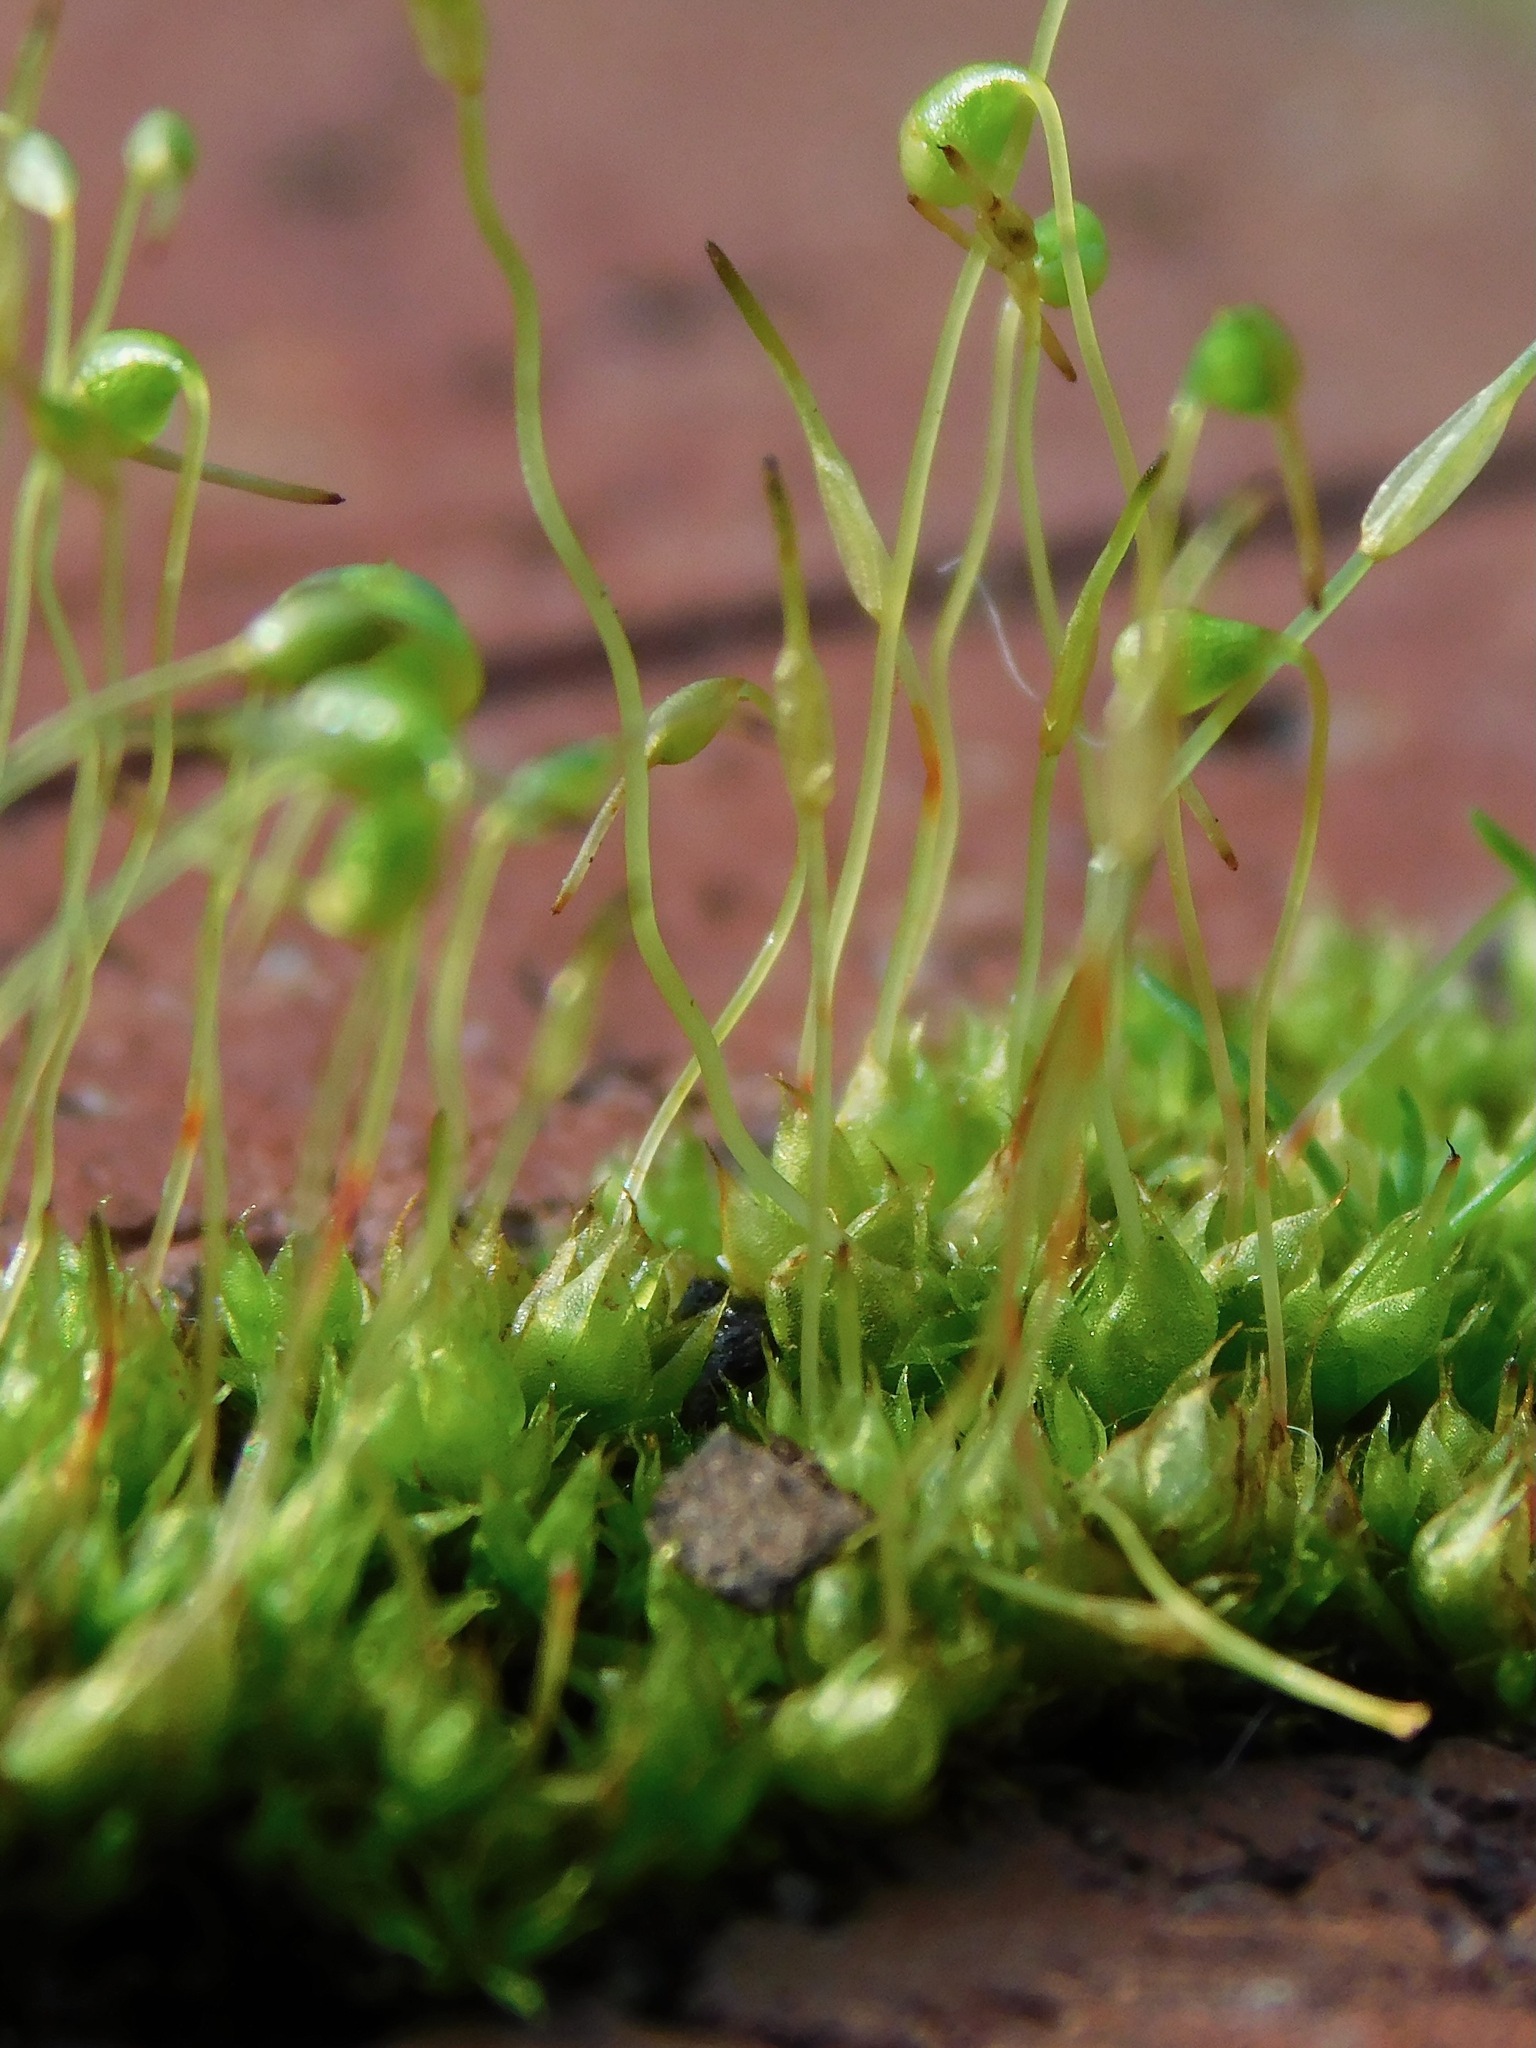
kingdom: Plantae
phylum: Bryophyta
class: Bryopsida
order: Funariales
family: Funariaceae
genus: Physcomitrium
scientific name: Physcomitrium pyriforme
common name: Common bladder-moss
